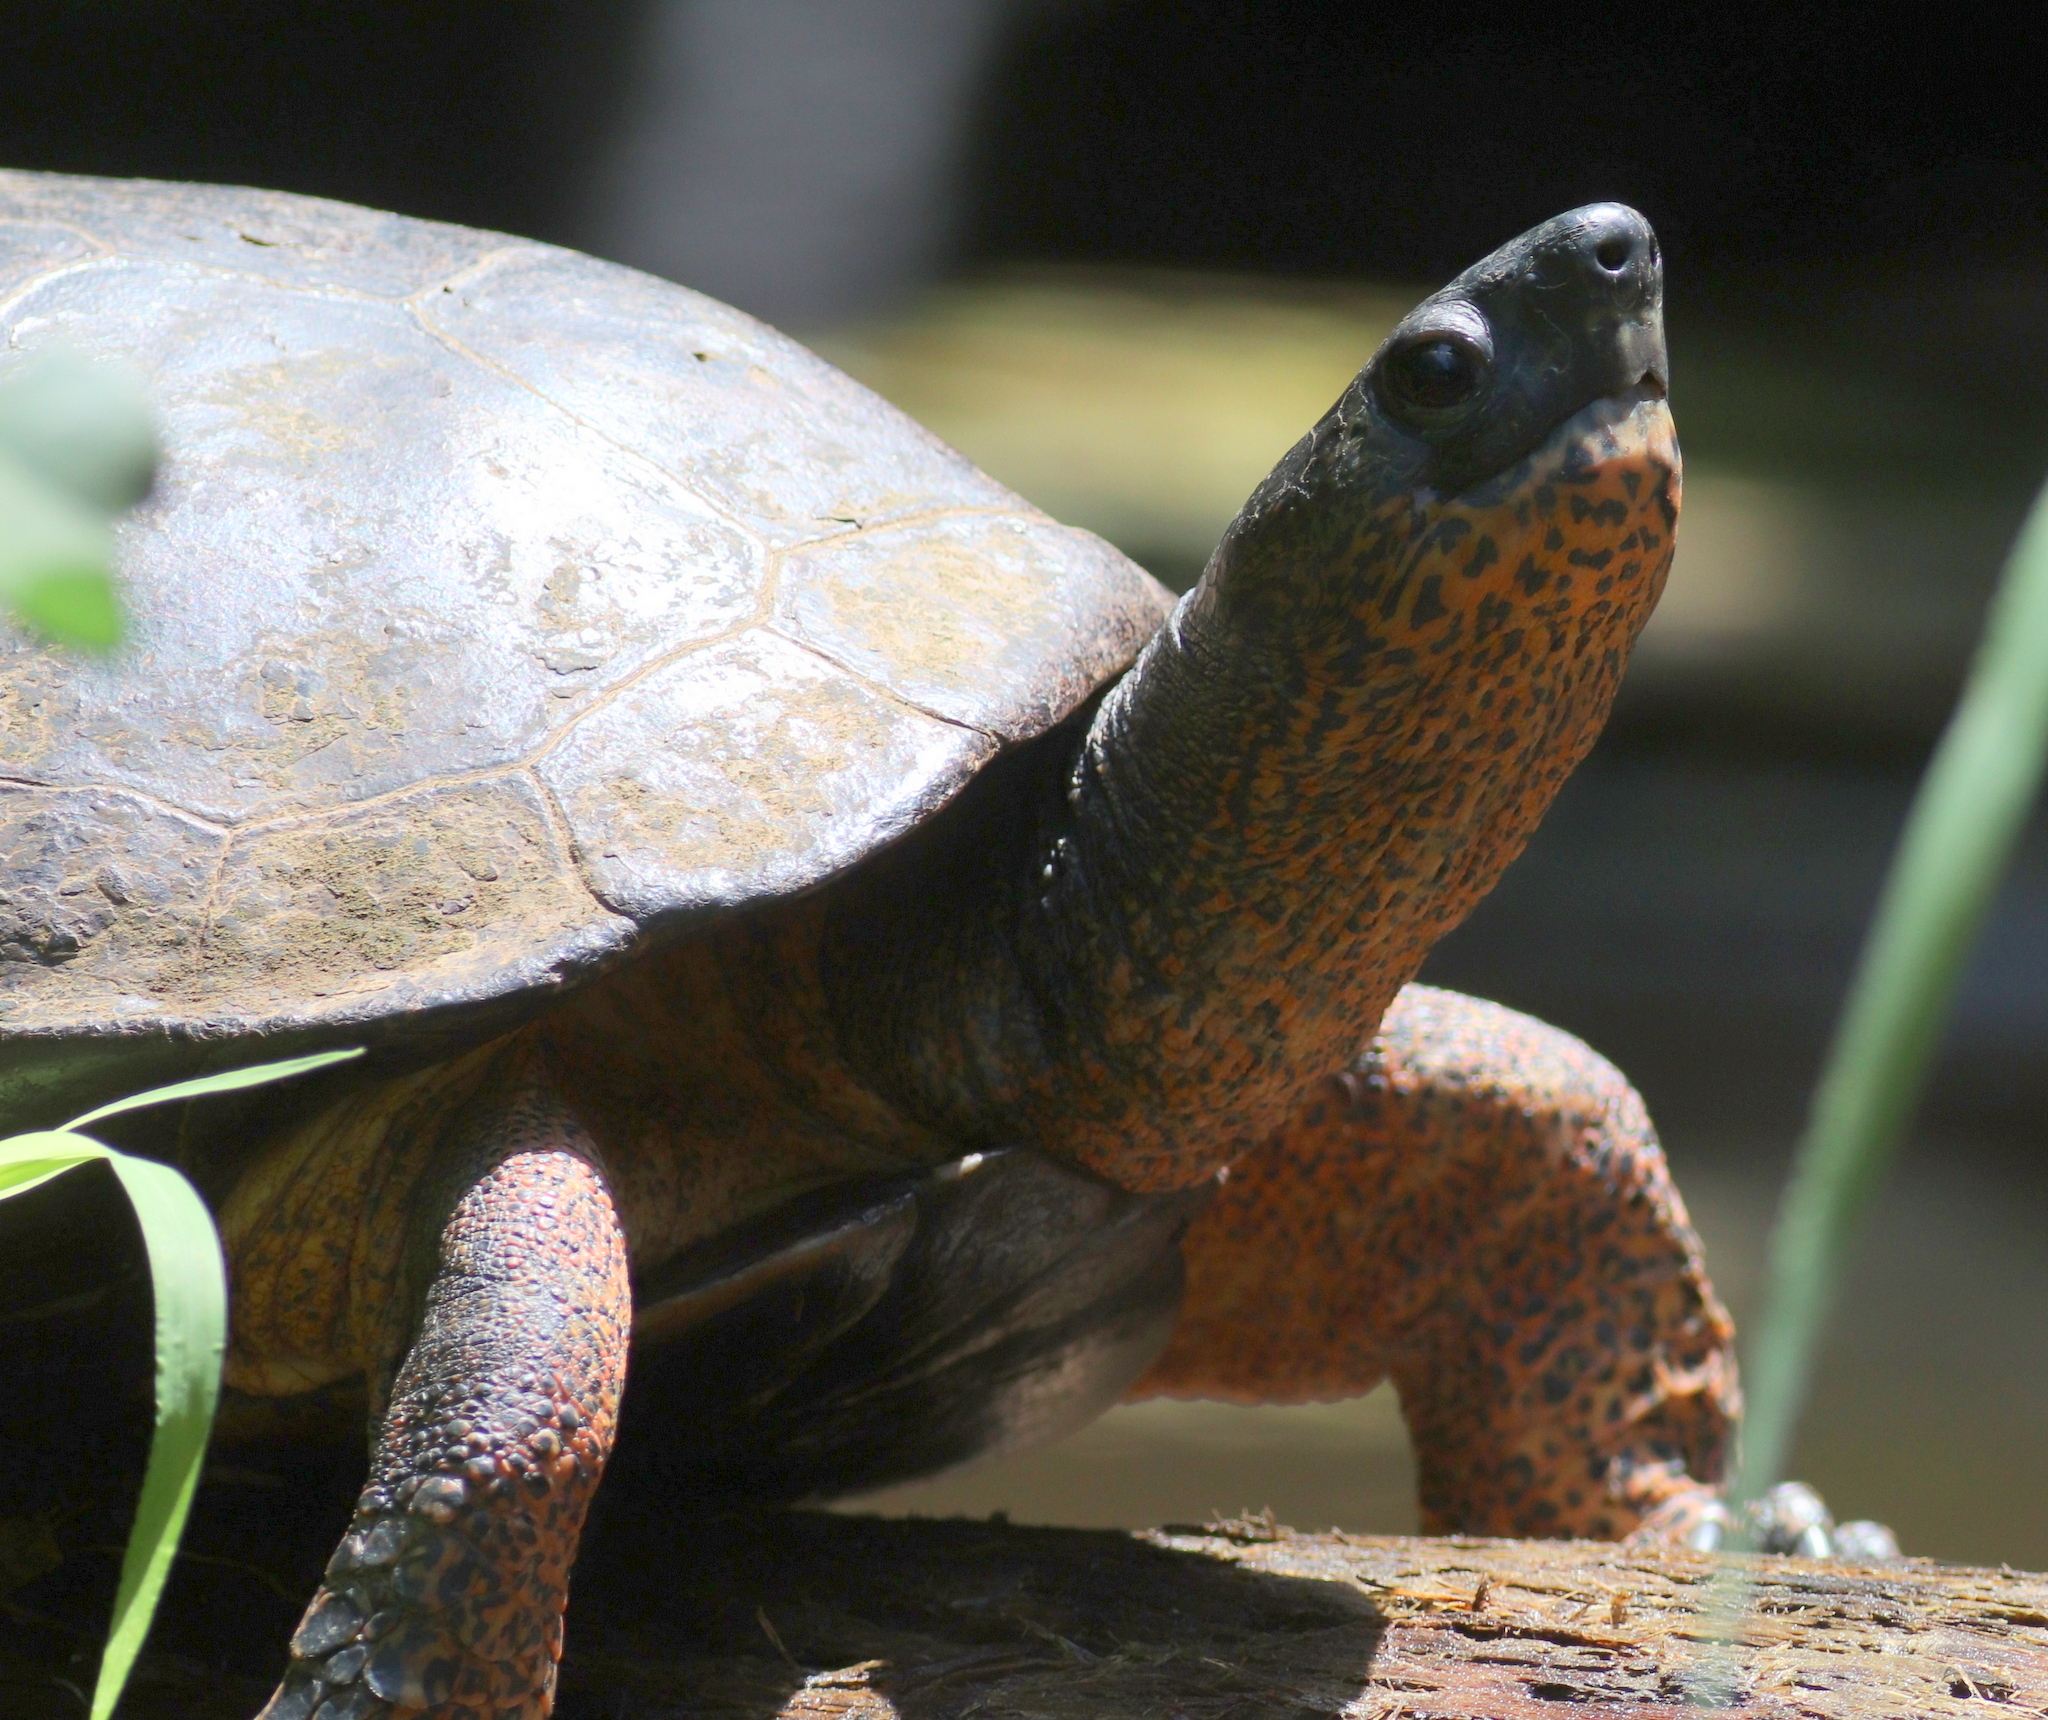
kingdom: Animalia
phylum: Chordata
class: Testudines
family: Geoemydidae
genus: Rhinoclemmys
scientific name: Rhinoclemmys funerea
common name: Black wood turtle
